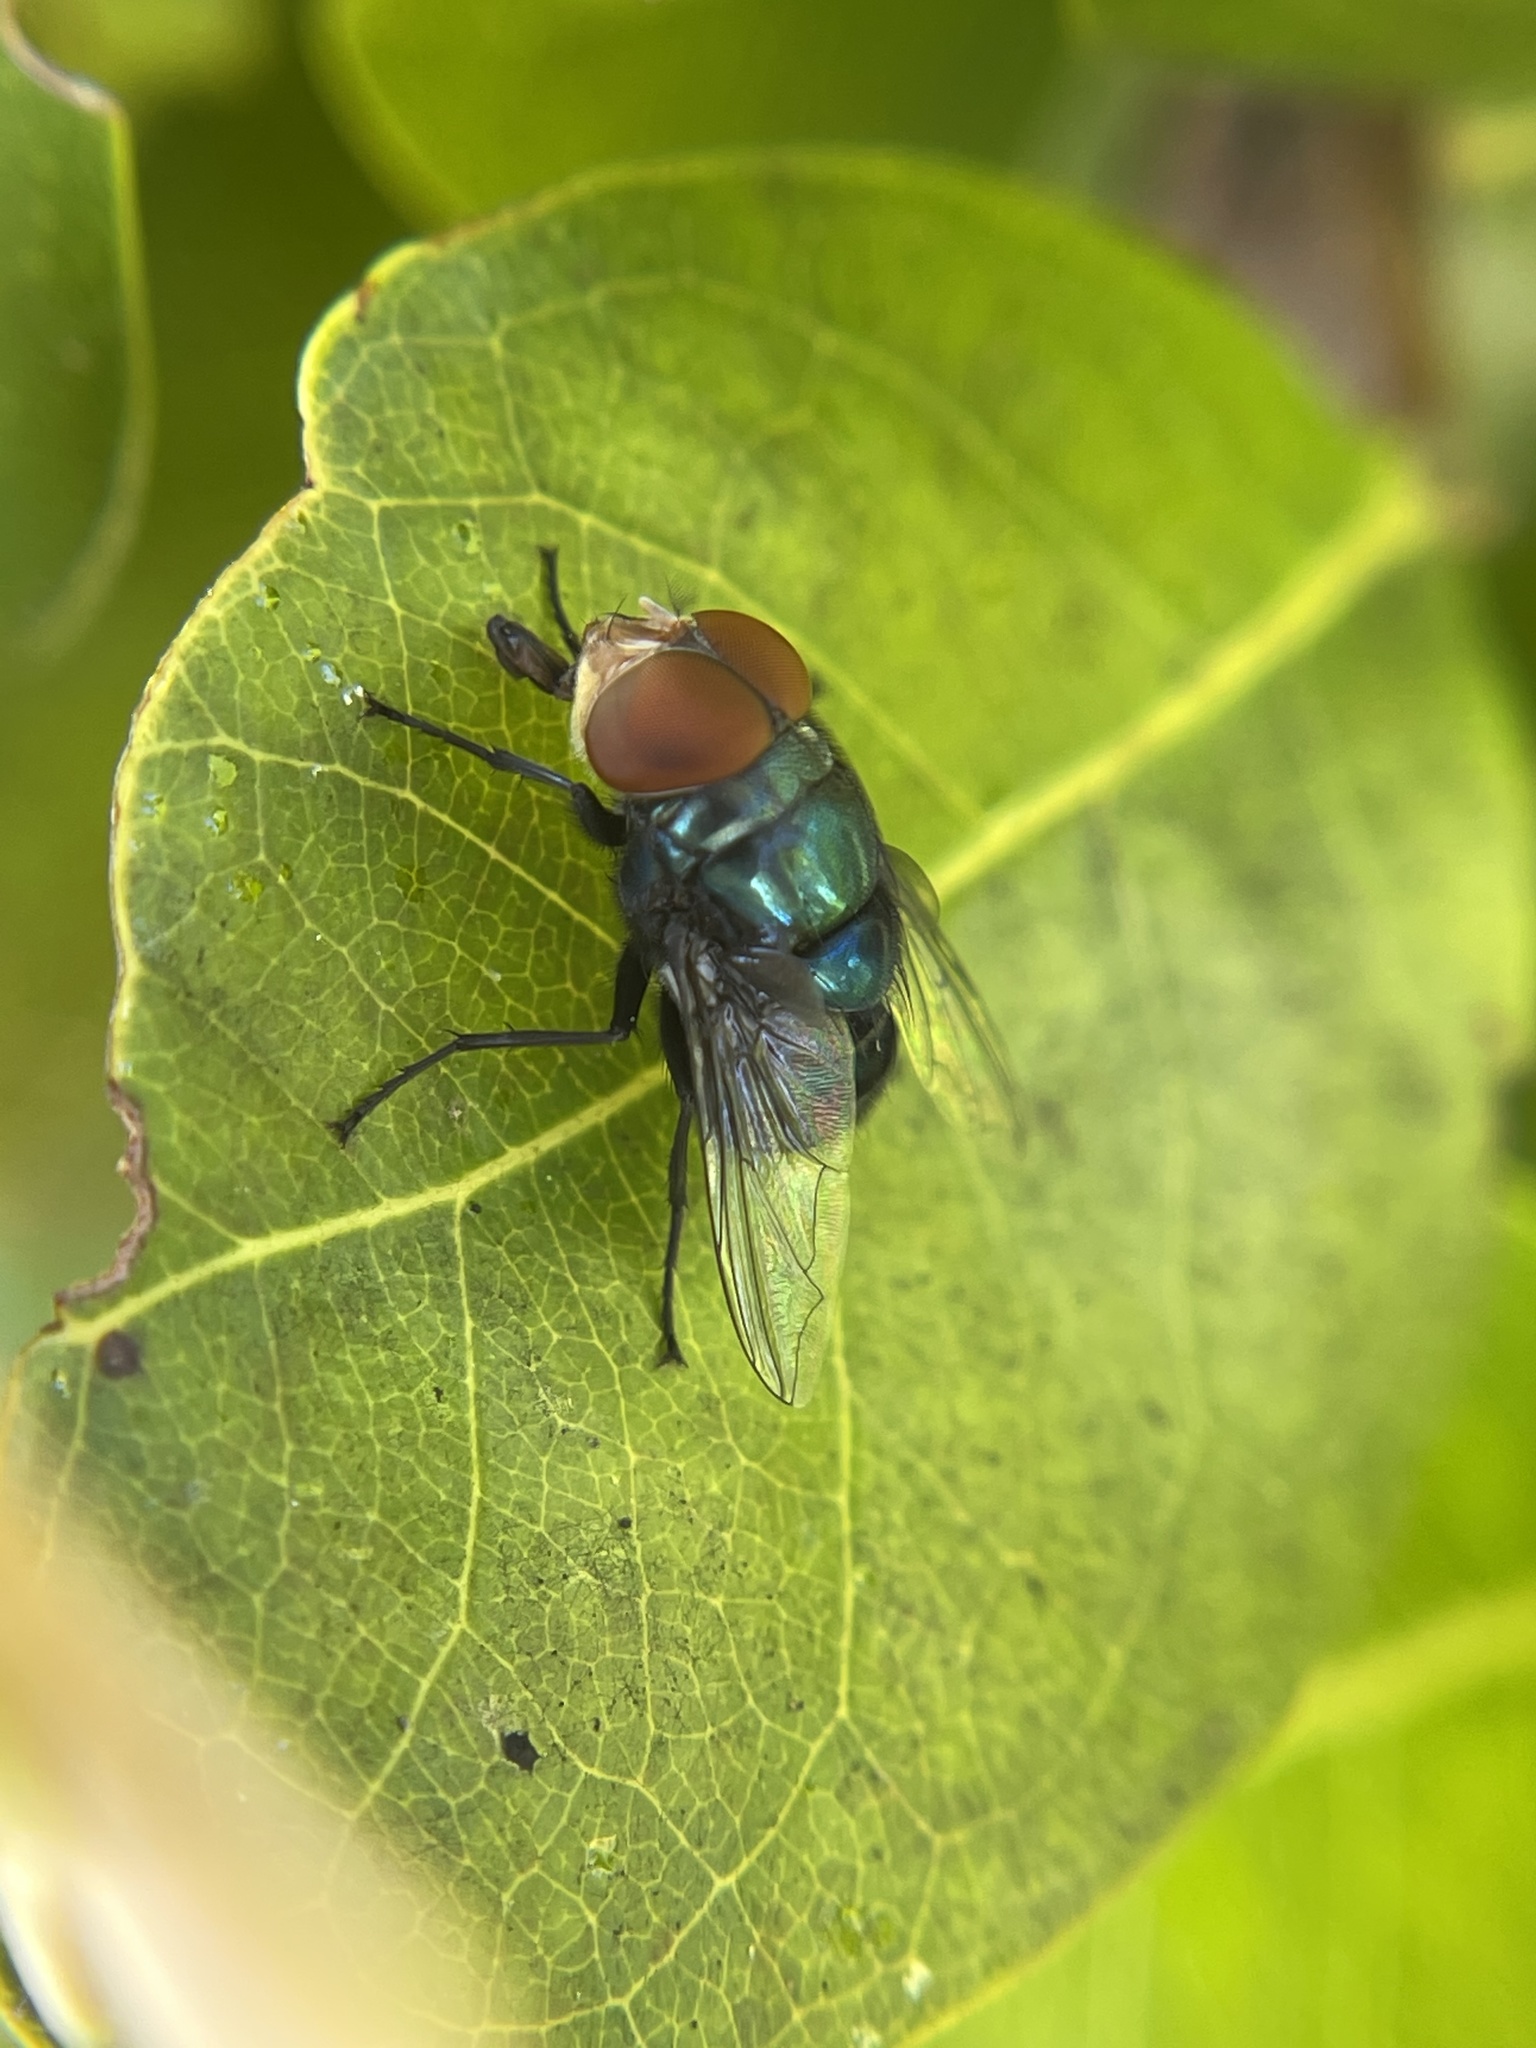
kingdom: Animalia
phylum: Arthropoda
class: Insecta
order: Diptera
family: Calliphoridae
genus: Chrysomya
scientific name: Chrysomya megacephala
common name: Blow fly
